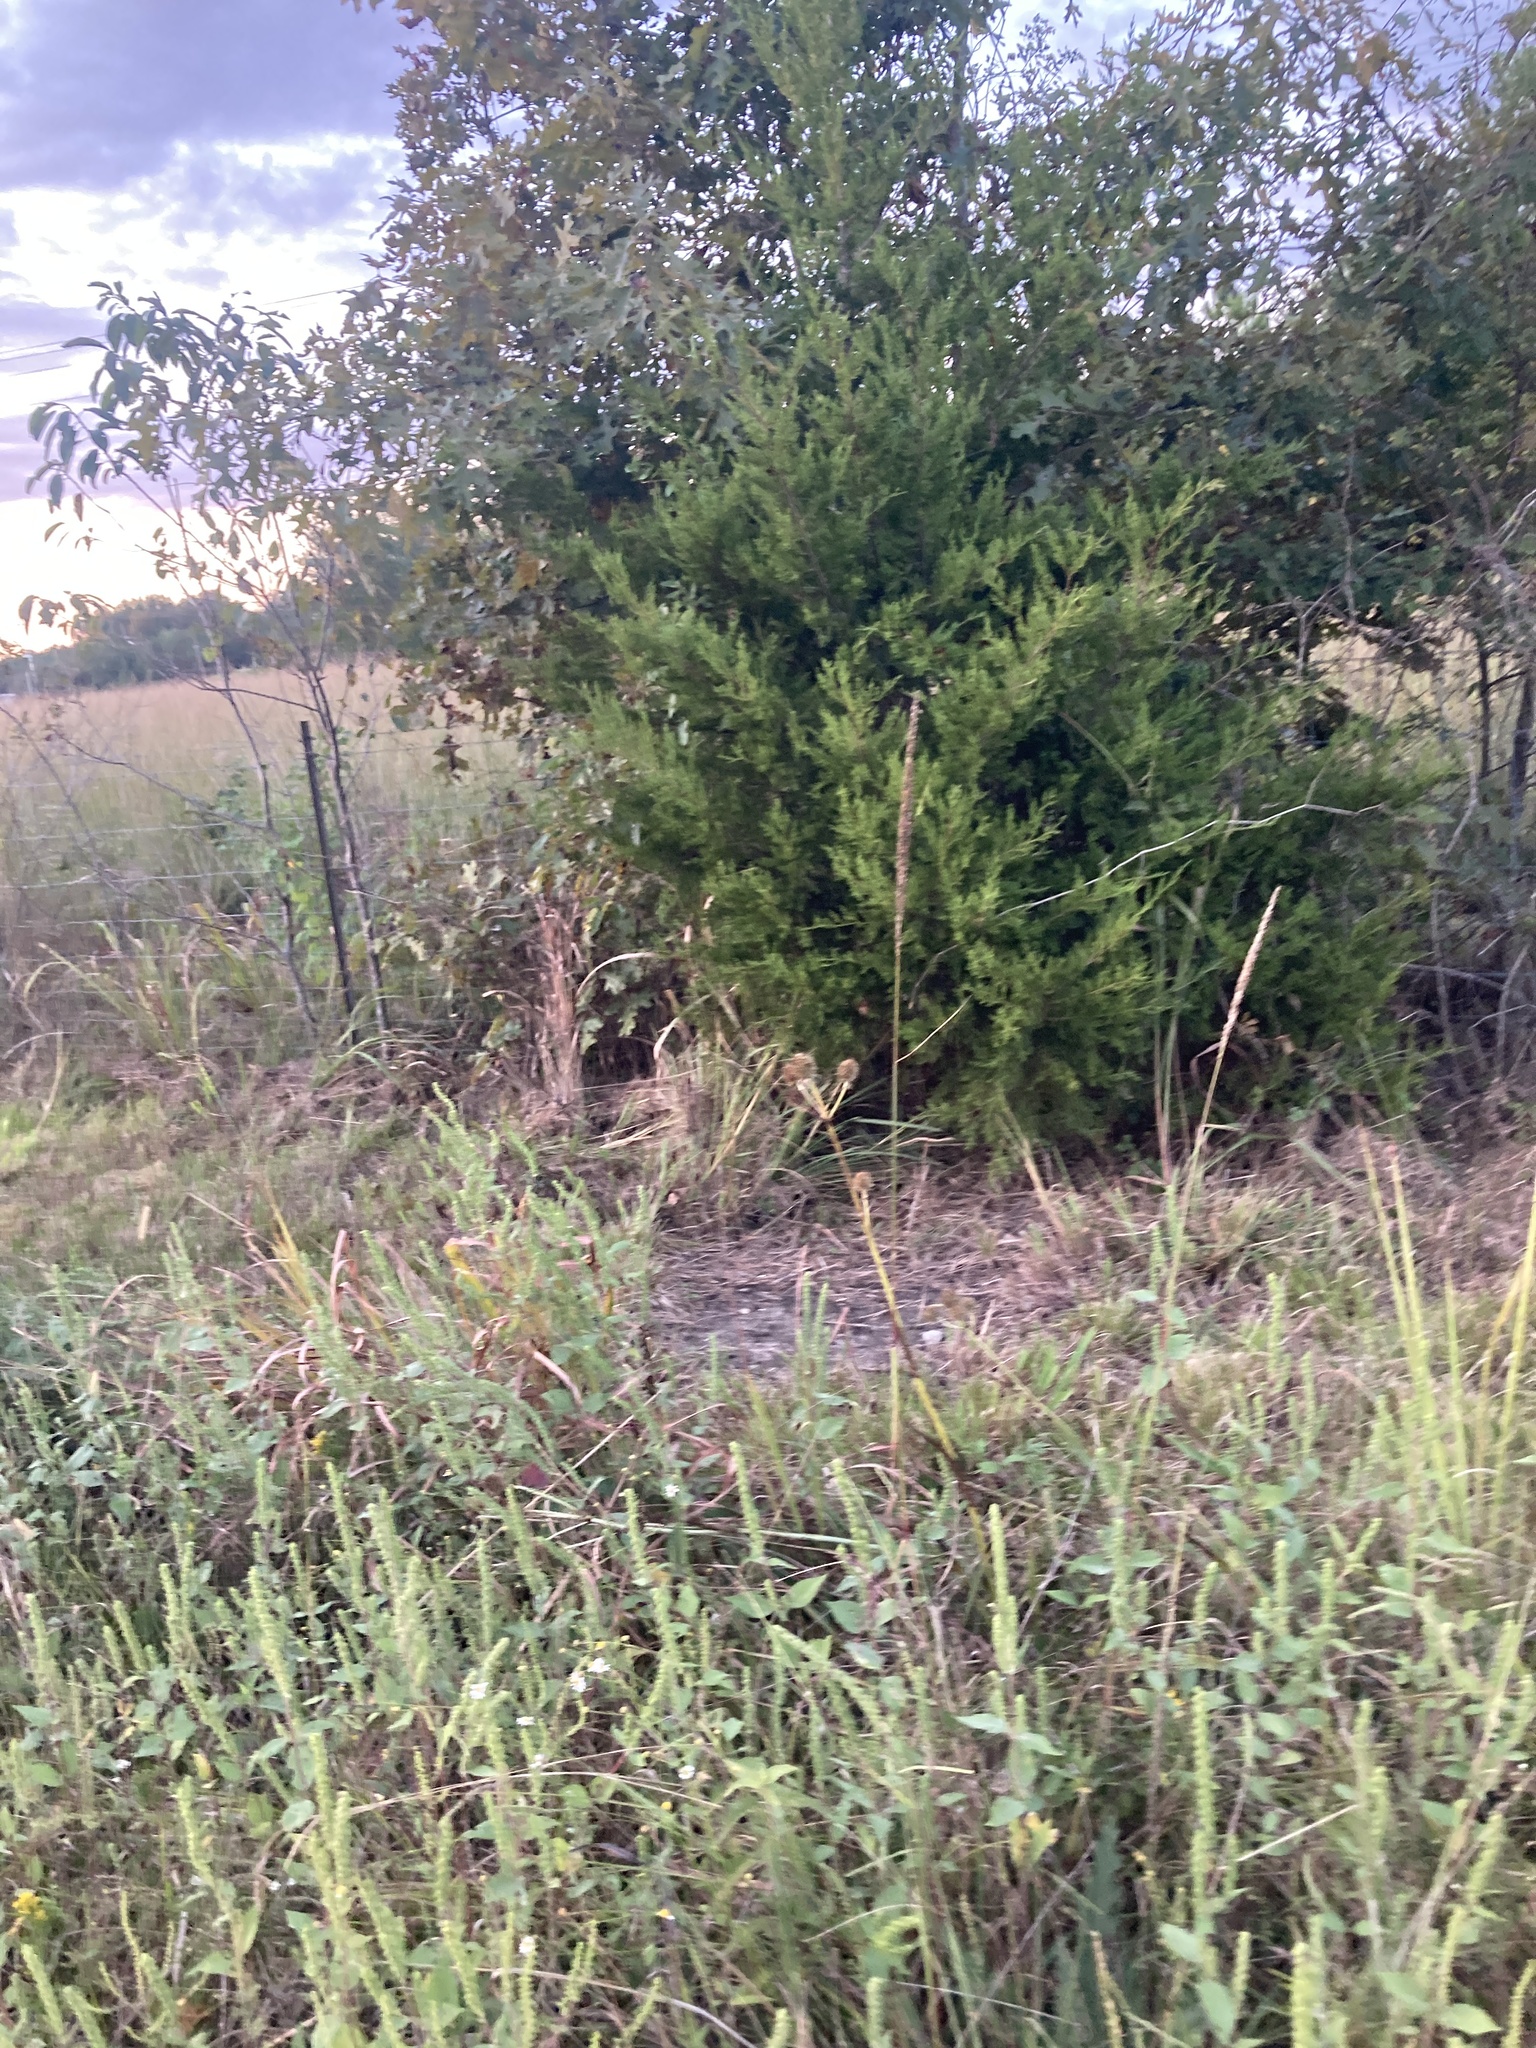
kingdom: Plantae
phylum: Tracheophyta
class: Liliopsida
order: Poales
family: Poaceae
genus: Tridens
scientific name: Tridens strictus
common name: Long-spike tridens
